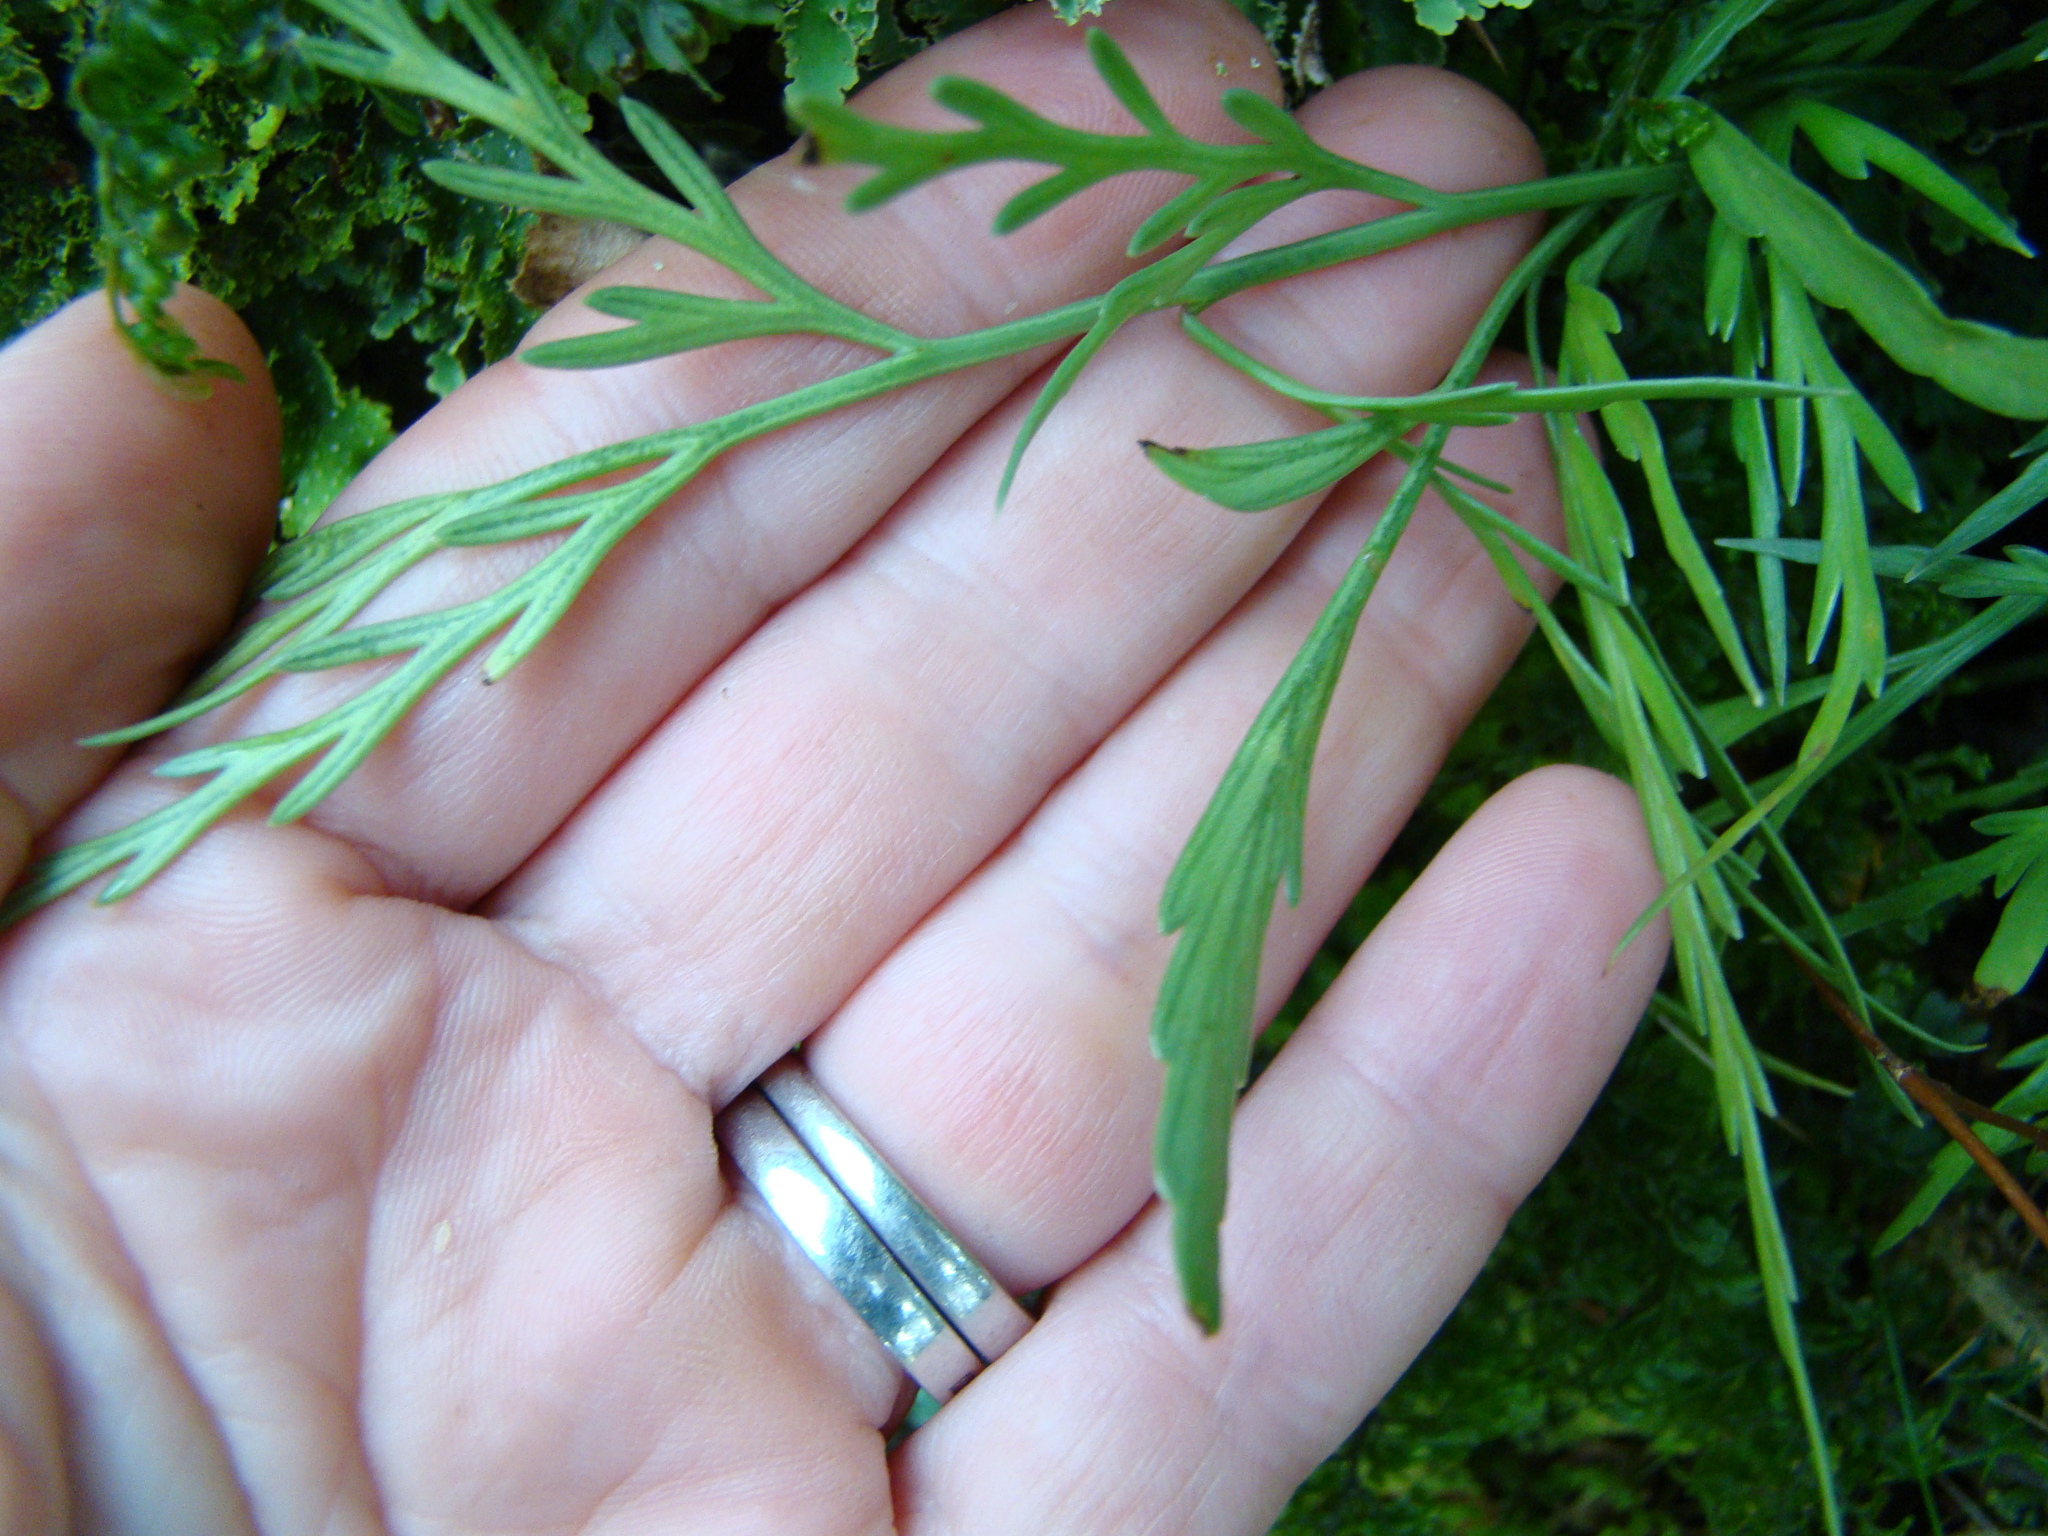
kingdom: Plantae
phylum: Tracheophyta
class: Polypodiopsida
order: Polypodiales
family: Aspleniaceae
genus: Asplenium
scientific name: Asplenium flaccidum
